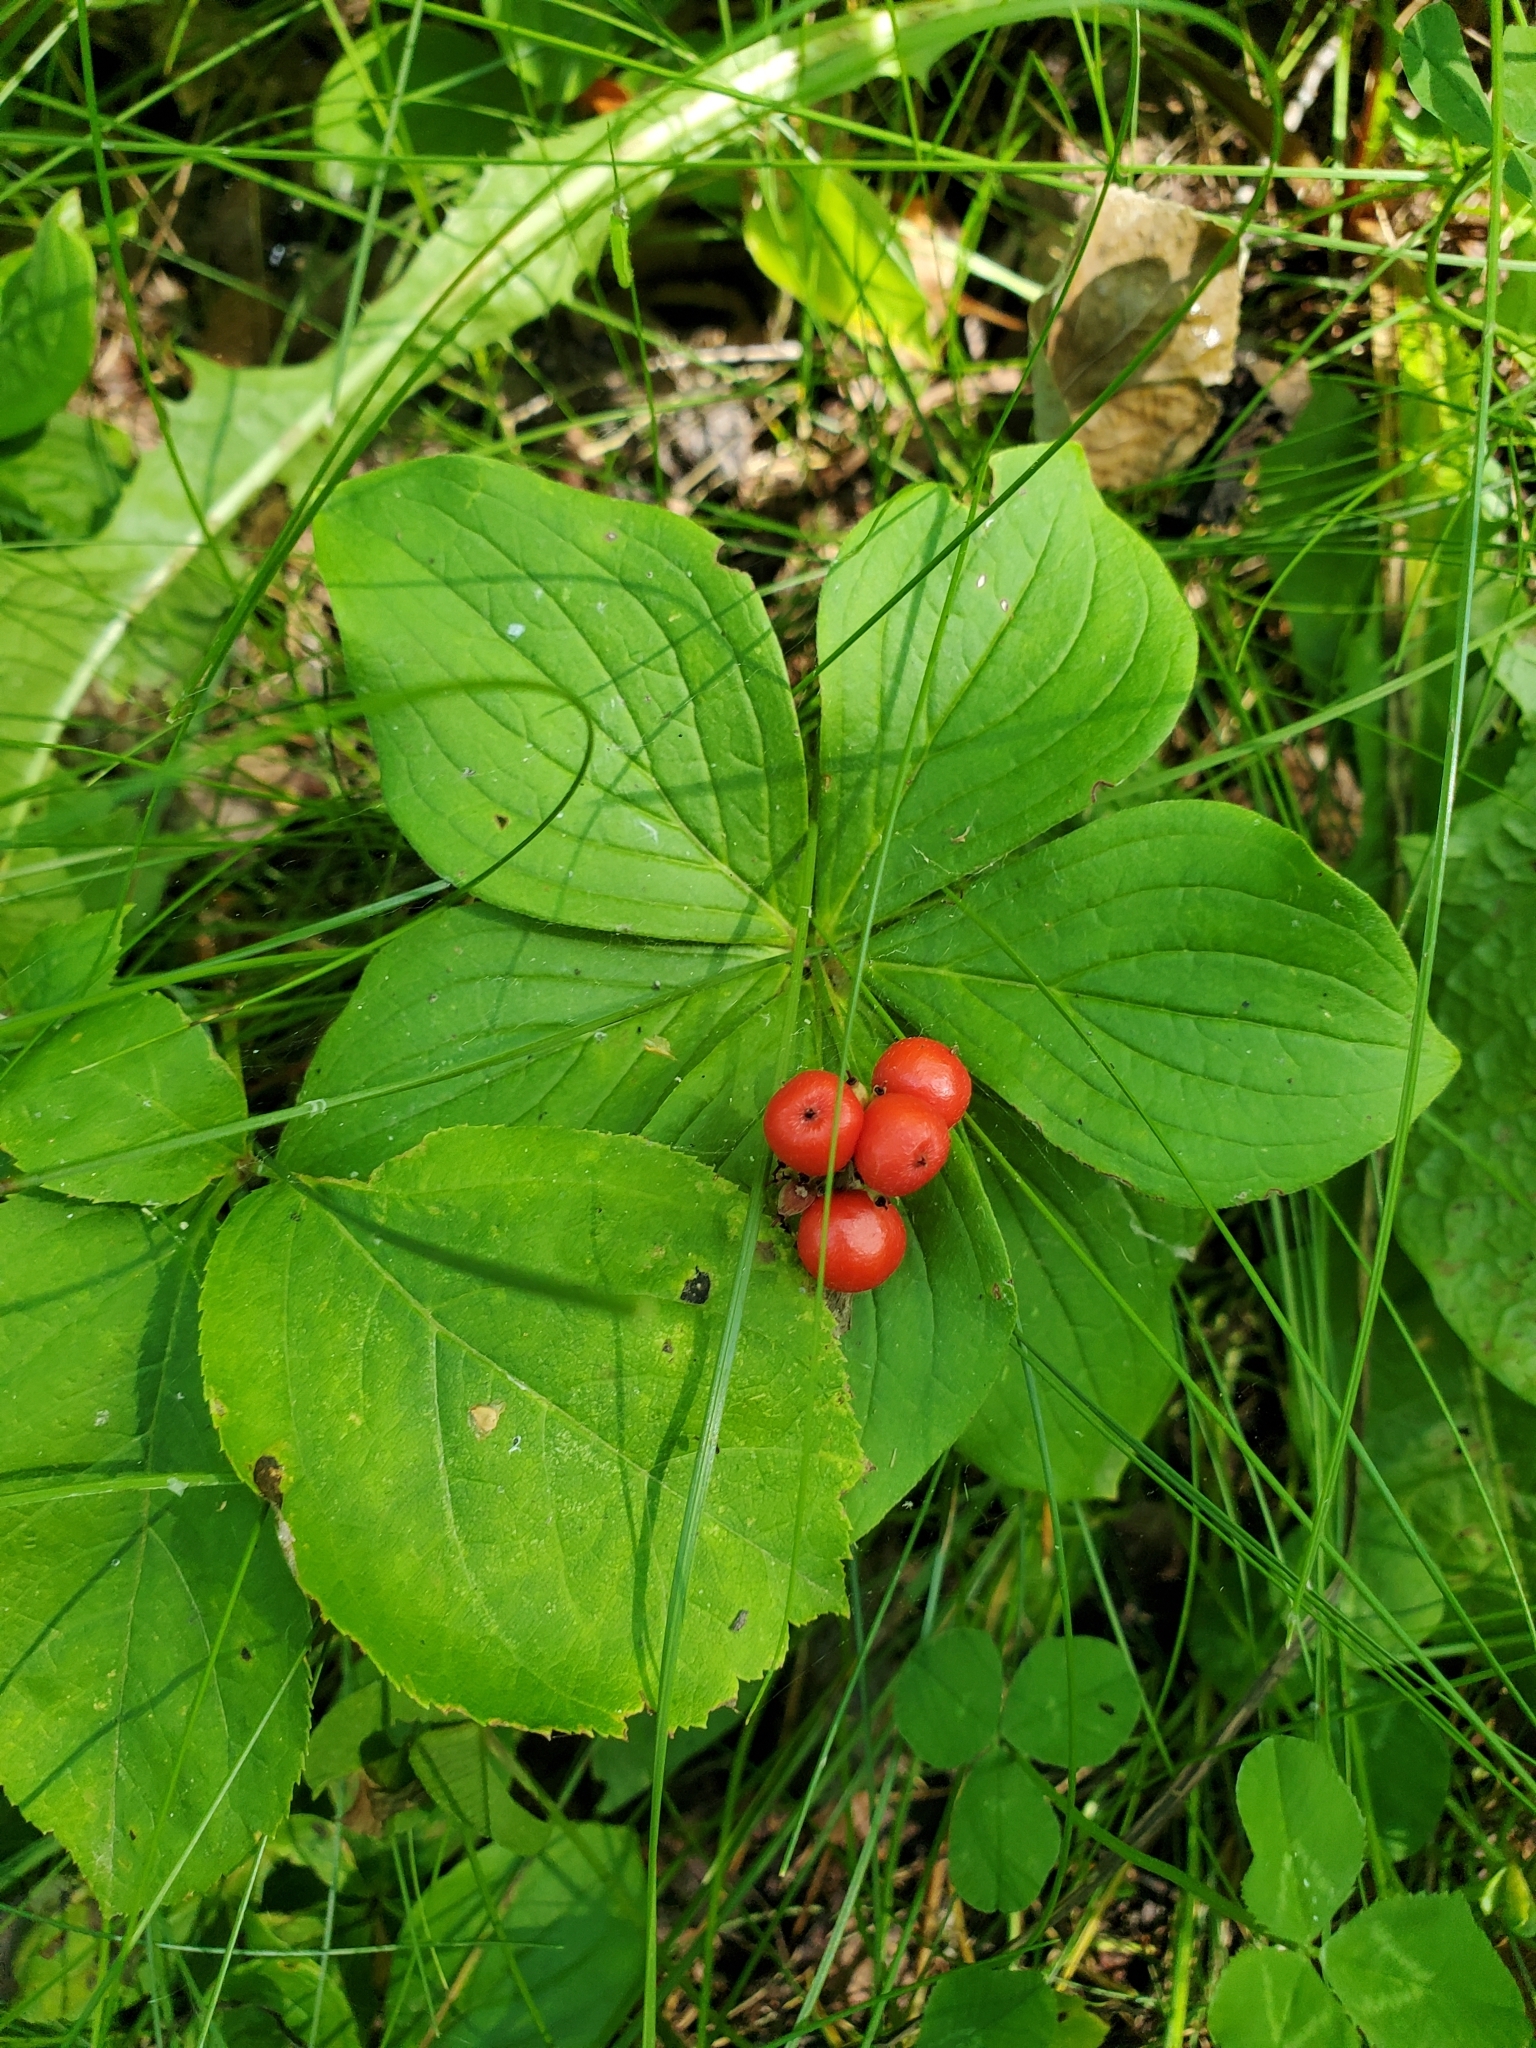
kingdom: Plantae
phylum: Tracheophyta
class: Magnoliopsida
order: Cornales
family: Cornaceae
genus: Cornus
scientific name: Cornus canadensis
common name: Creeping dogwood
